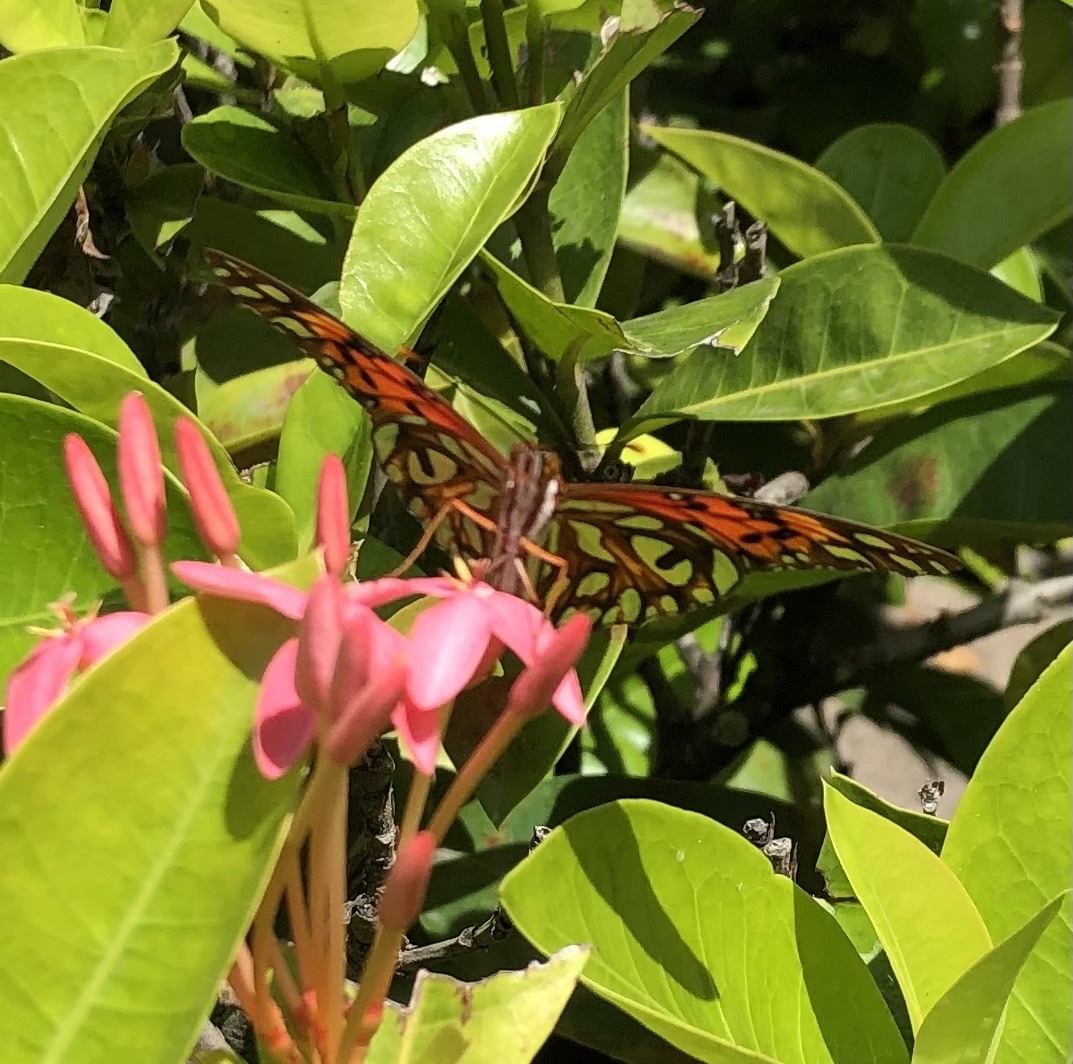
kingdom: Animalia
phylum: Arthropoda
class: Insecta
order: Lepidoptera
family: Nymphalidae
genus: Dione
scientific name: Dione vanillae
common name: Gulf fritillary
